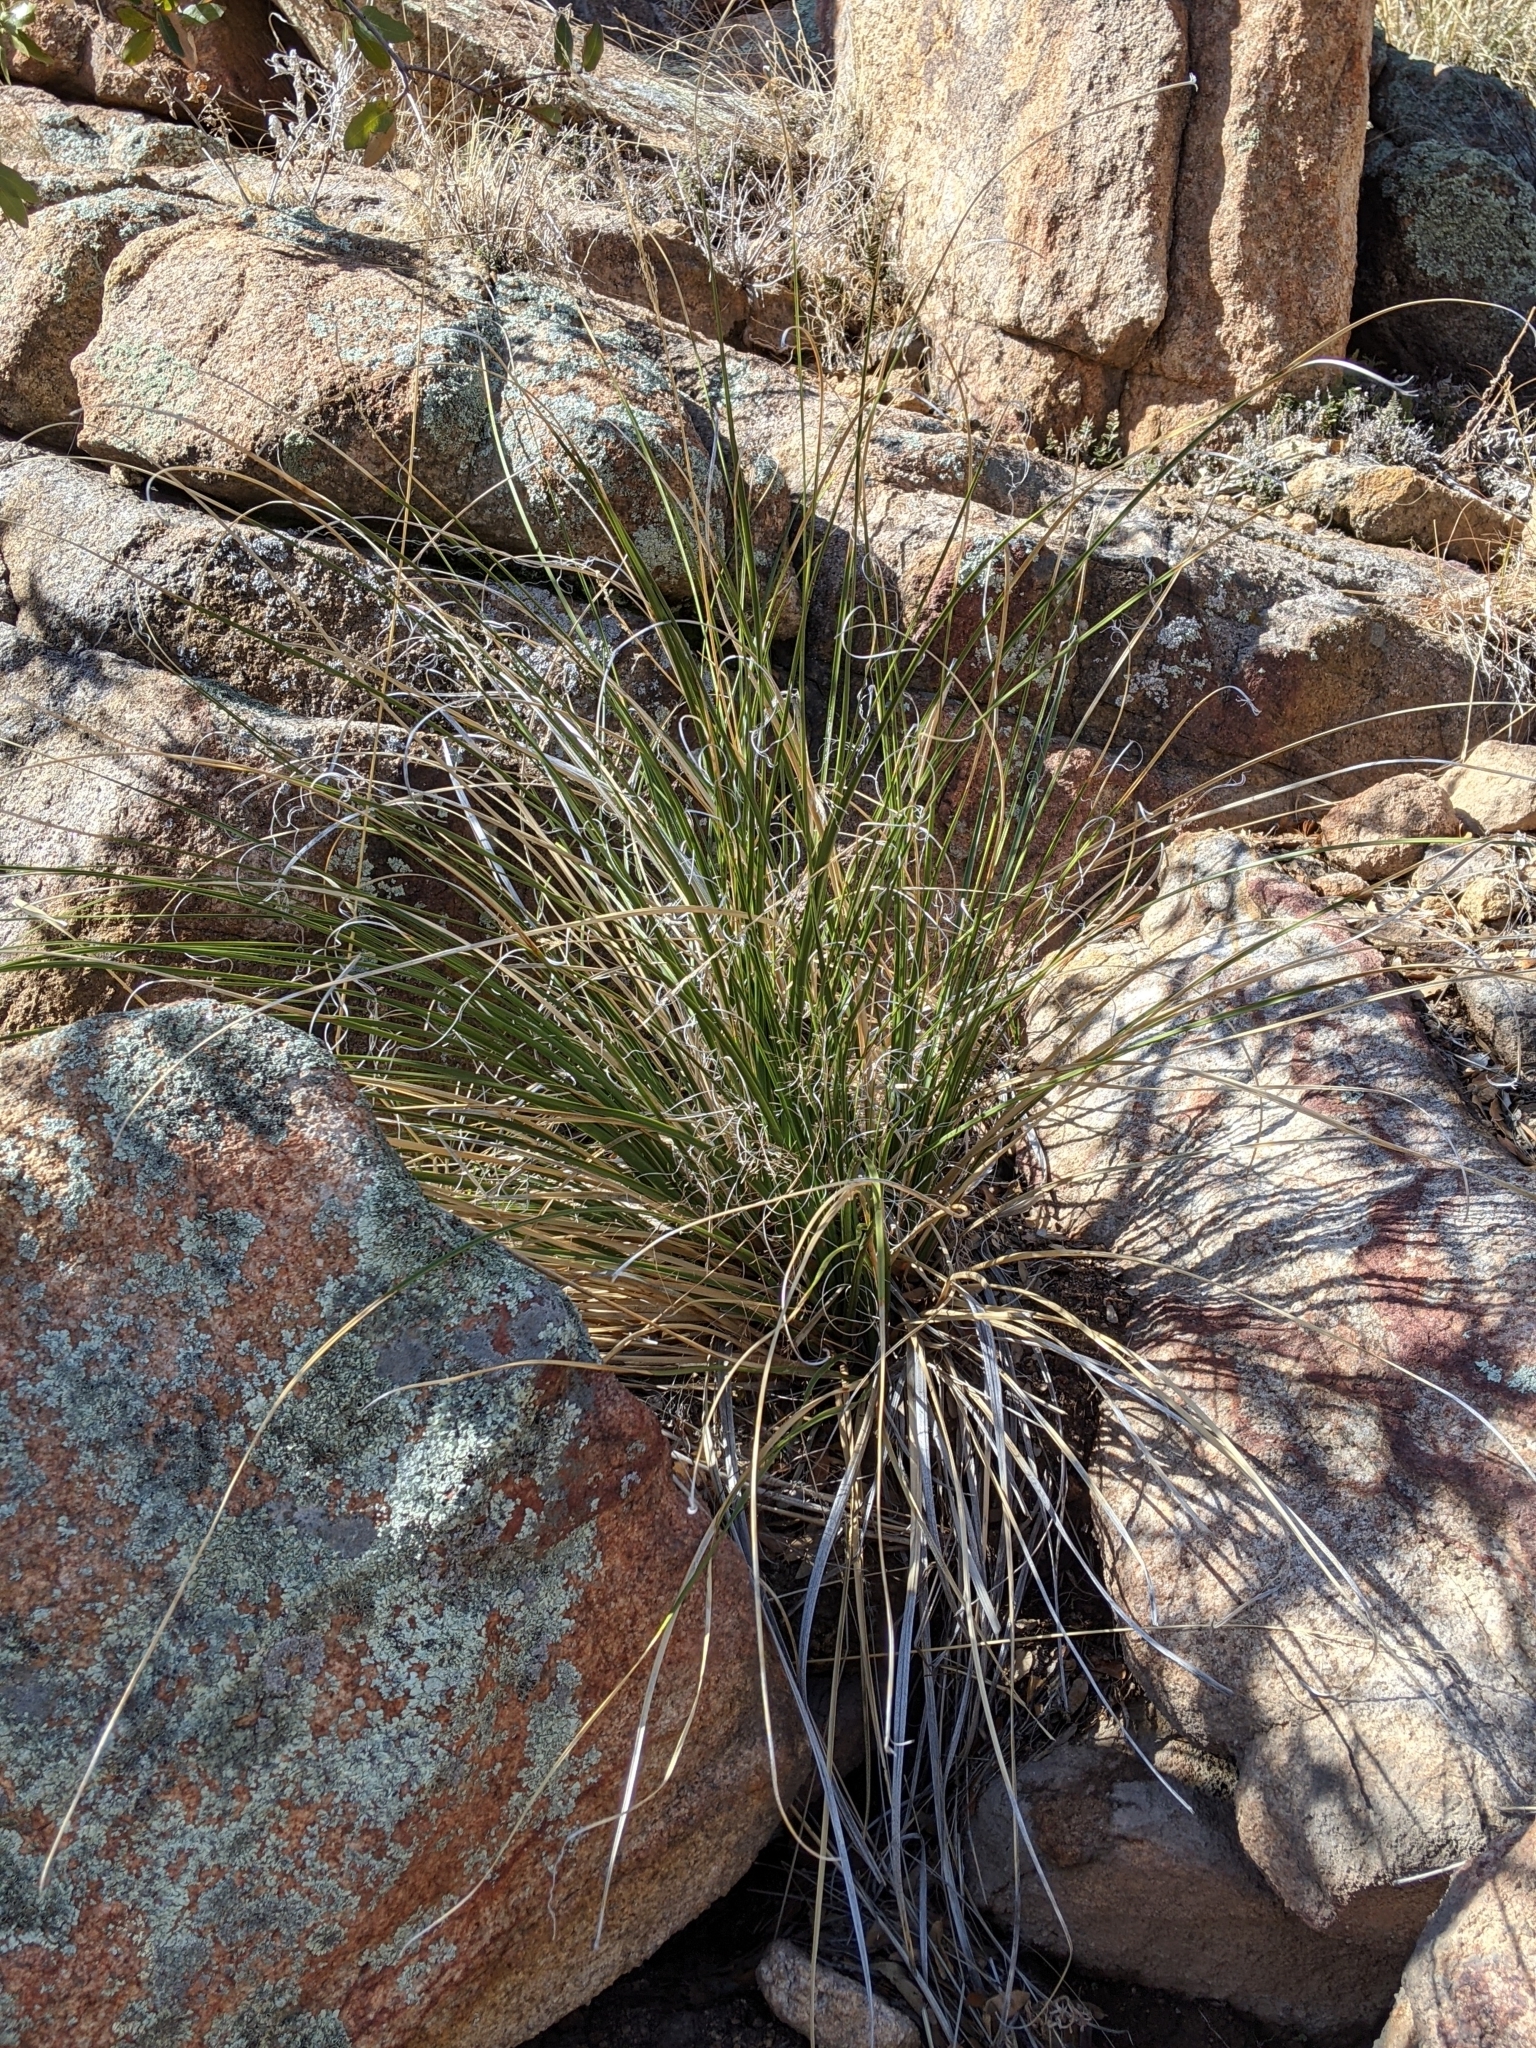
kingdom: Plantae
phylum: Tracheophyta
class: Liliopsida
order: Asparagales
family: Asparagaceae
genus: Nolina
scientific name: Nolina microcarpa
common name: Bear-grass
